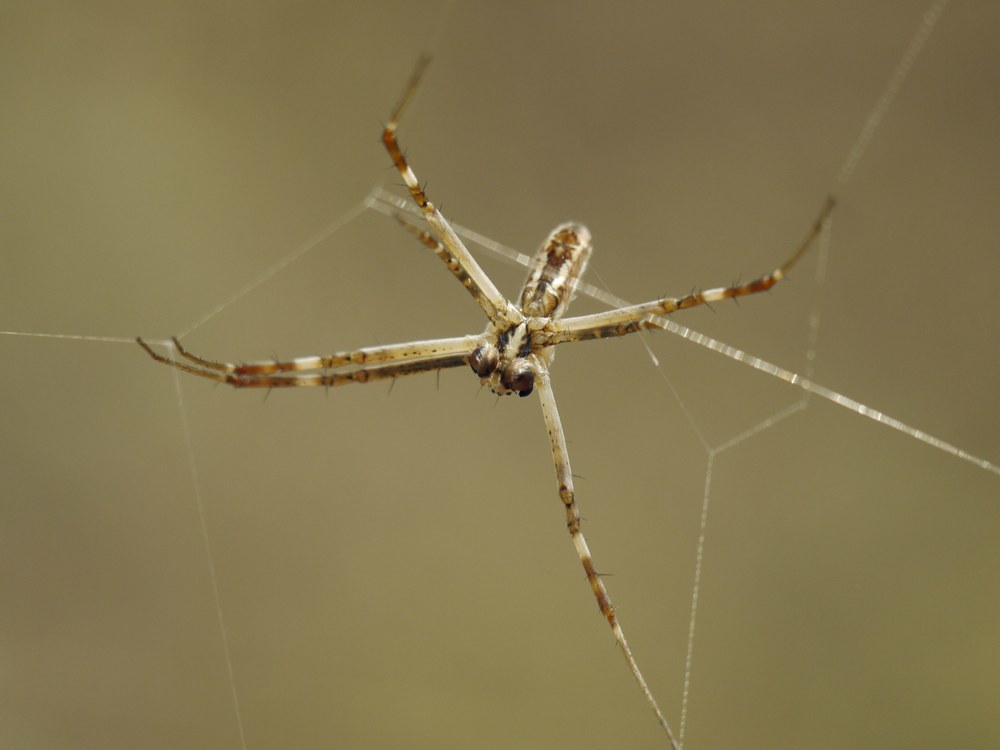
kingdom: Animalia
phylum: Arthropoda
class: Arachnida
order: Araneae
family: Araneidae
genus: Argiope
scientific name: Argiope lobata
